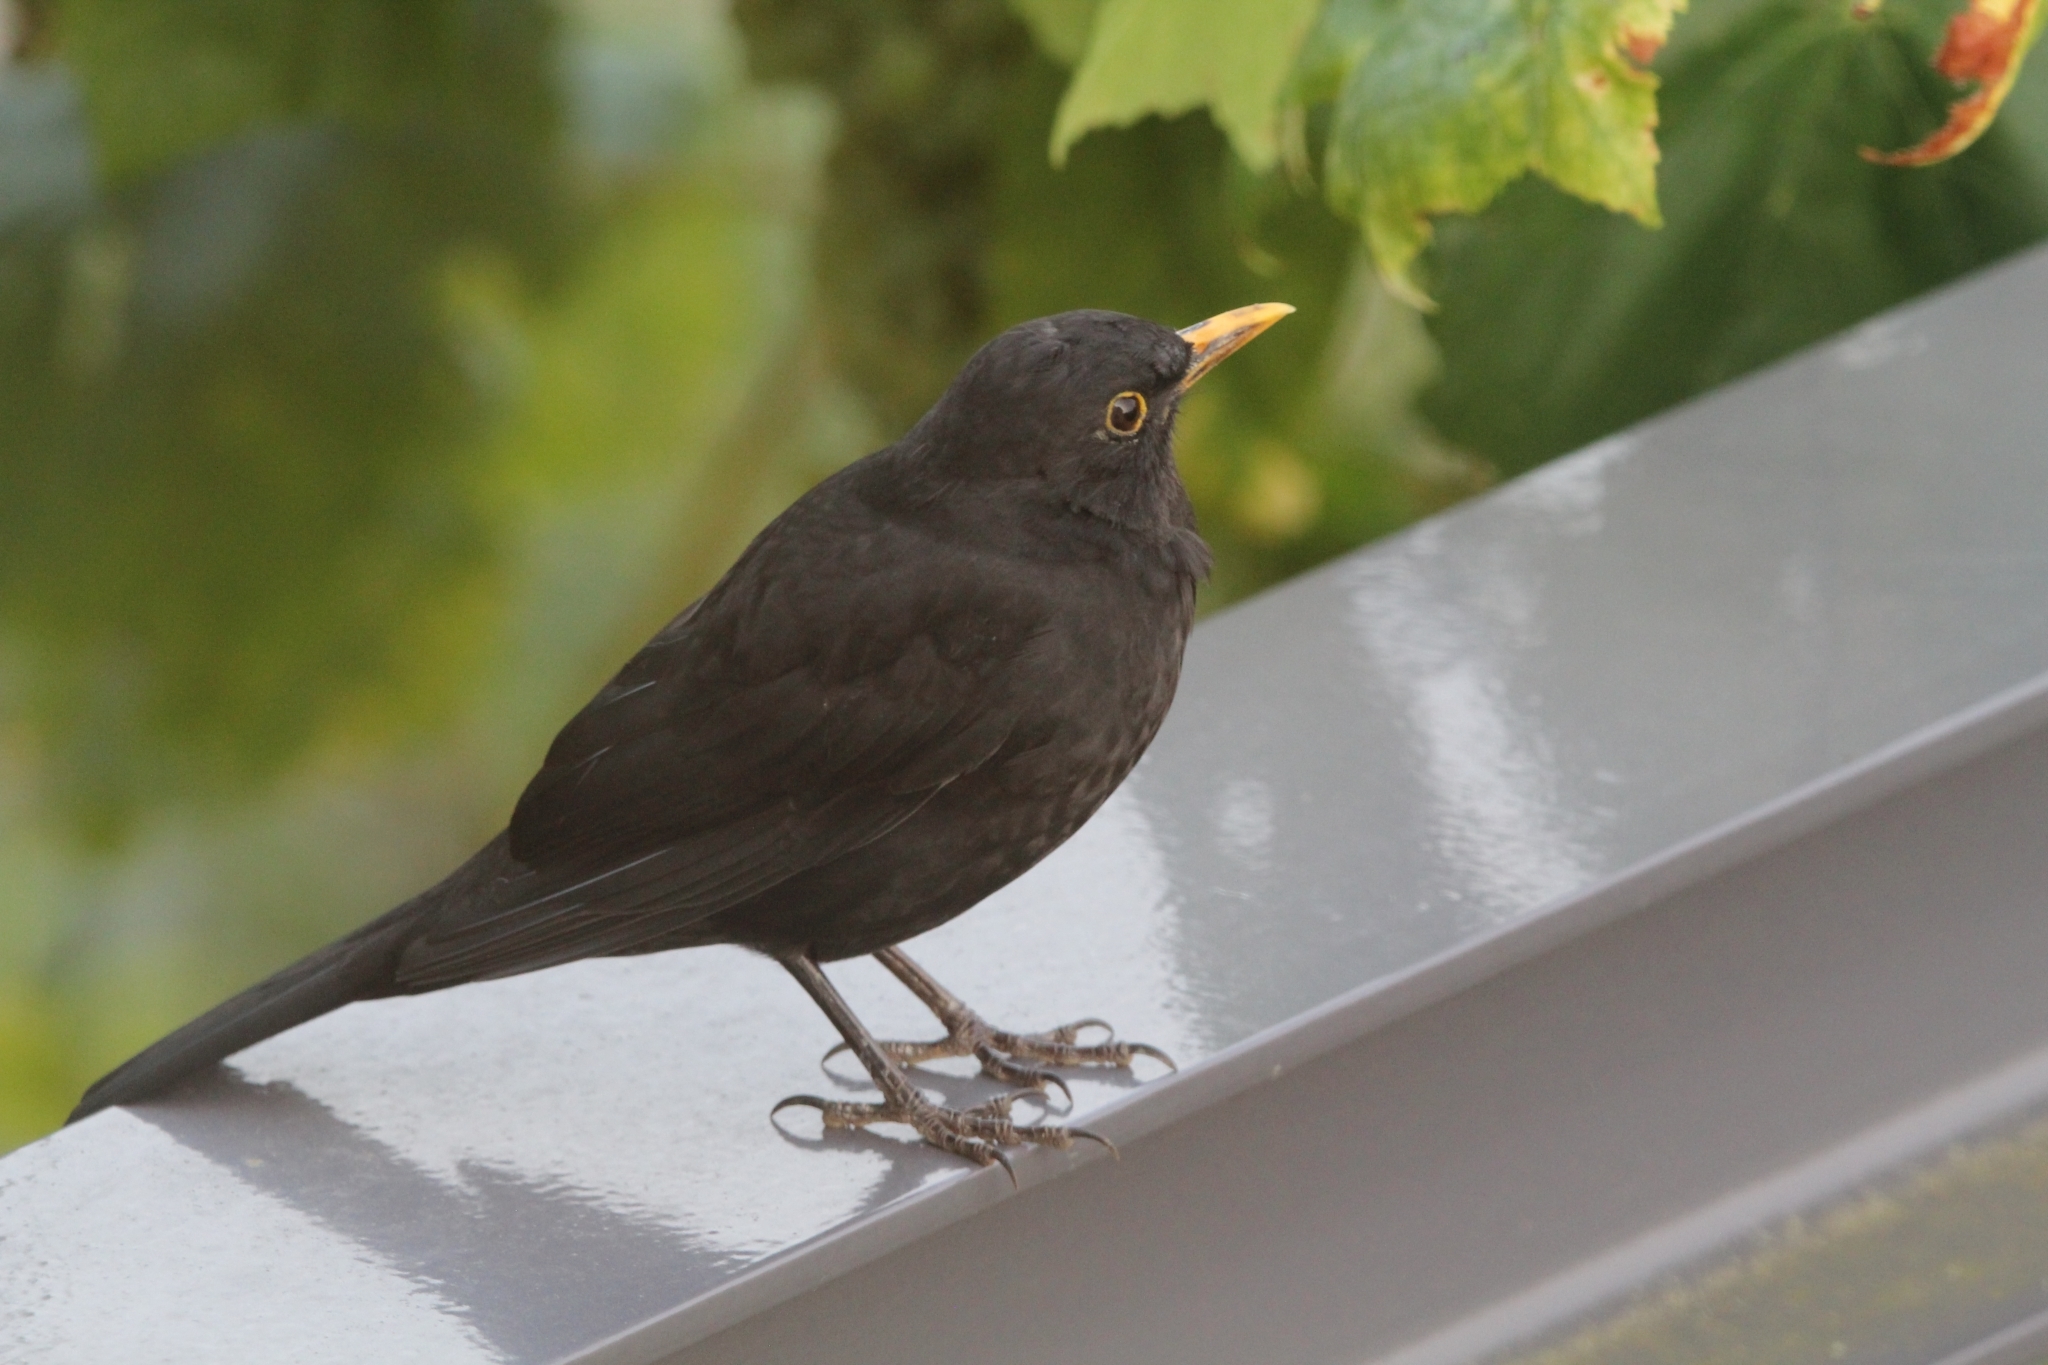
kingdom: Animalia
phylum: Chordata
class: Aves
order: Passeriformes
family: Turdidae
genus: Turdus
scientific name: Turdus merula
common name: Common blackbird
